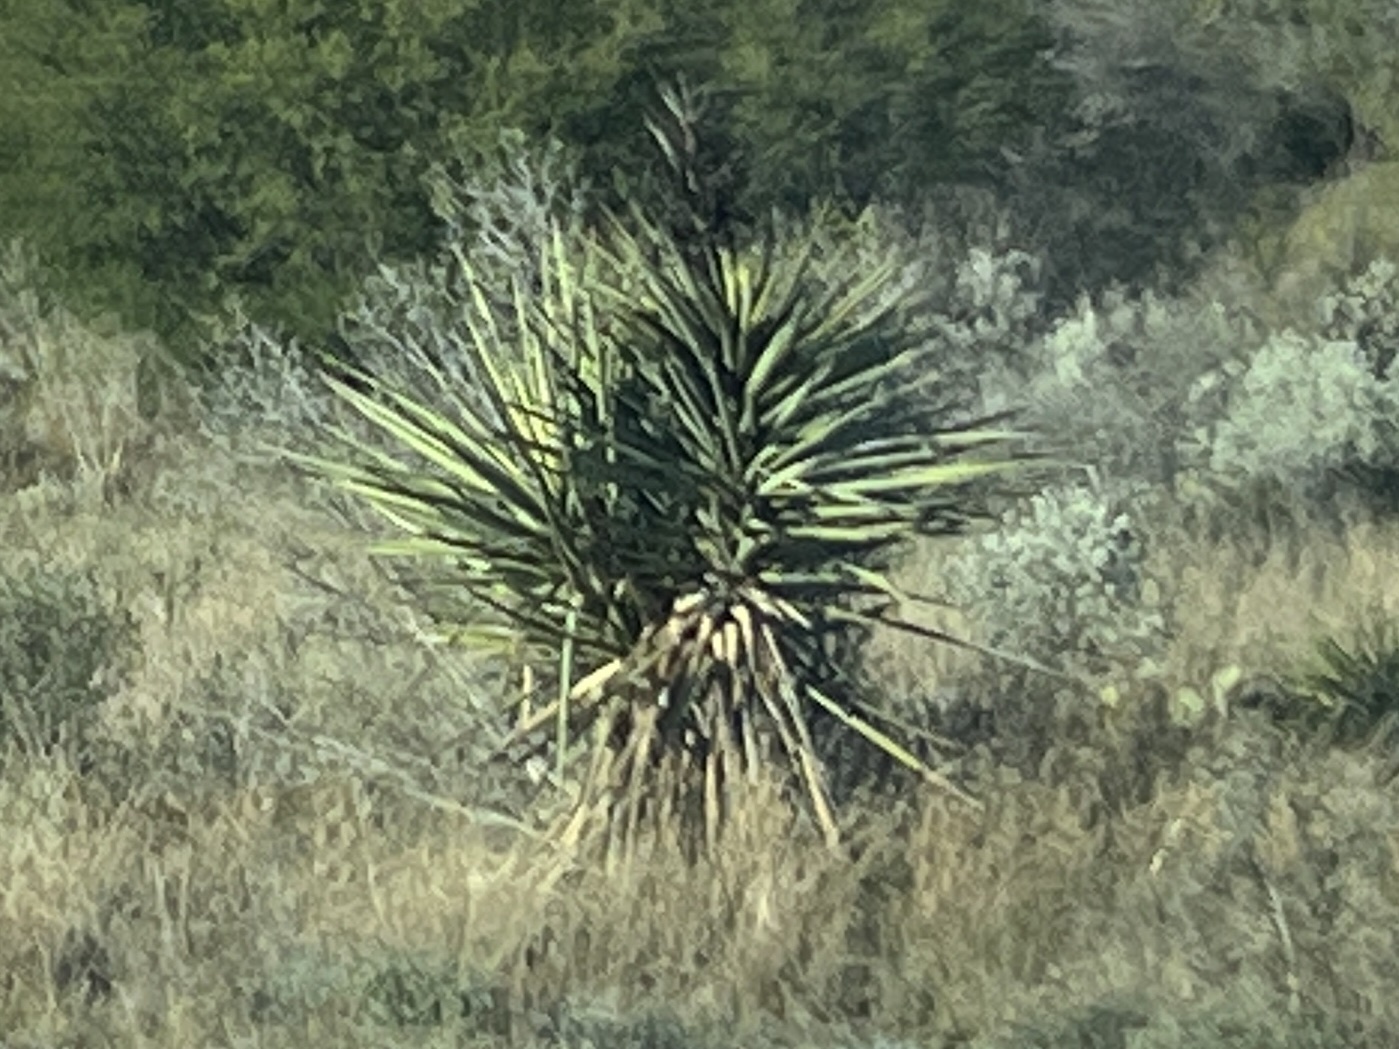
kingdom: Plantae
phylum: Tracheophyta
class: Liliopsida
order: Asparagales
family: Asparagaceae
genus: Yucca
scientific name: Yucca treculiana
